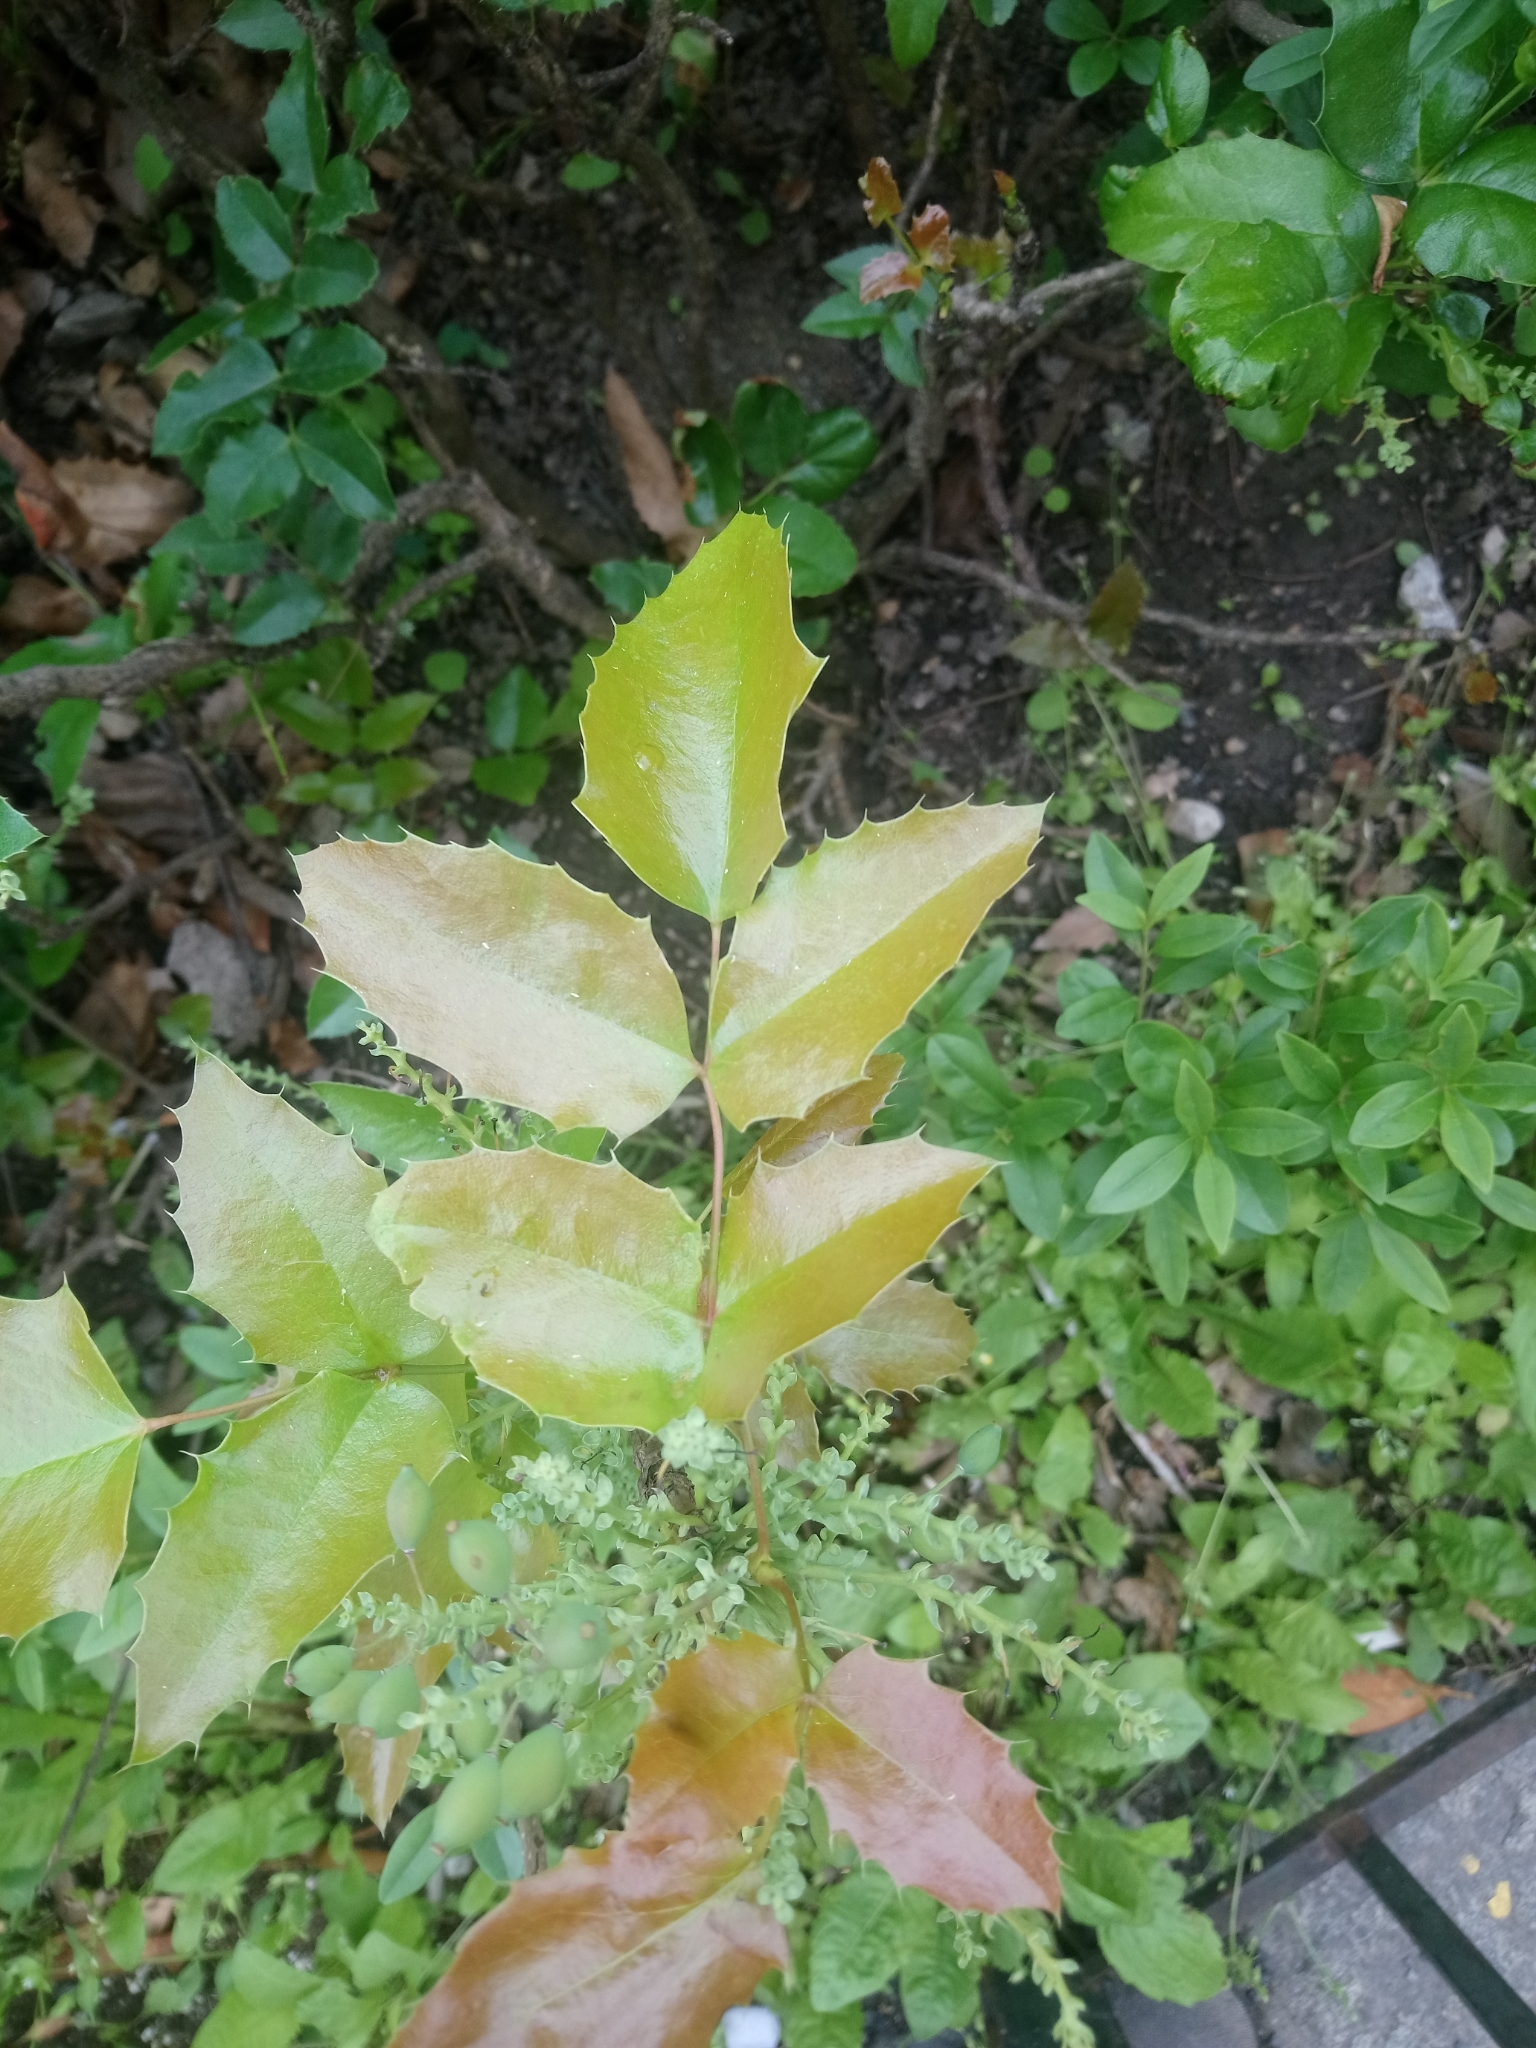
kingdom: Plantae
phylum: Tracheophyta
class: Magnoliopsida
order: Ranunculales
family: Berberidaceae
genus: Mahonia
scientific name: Mahonia aquifolium
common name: Oregon-grape
